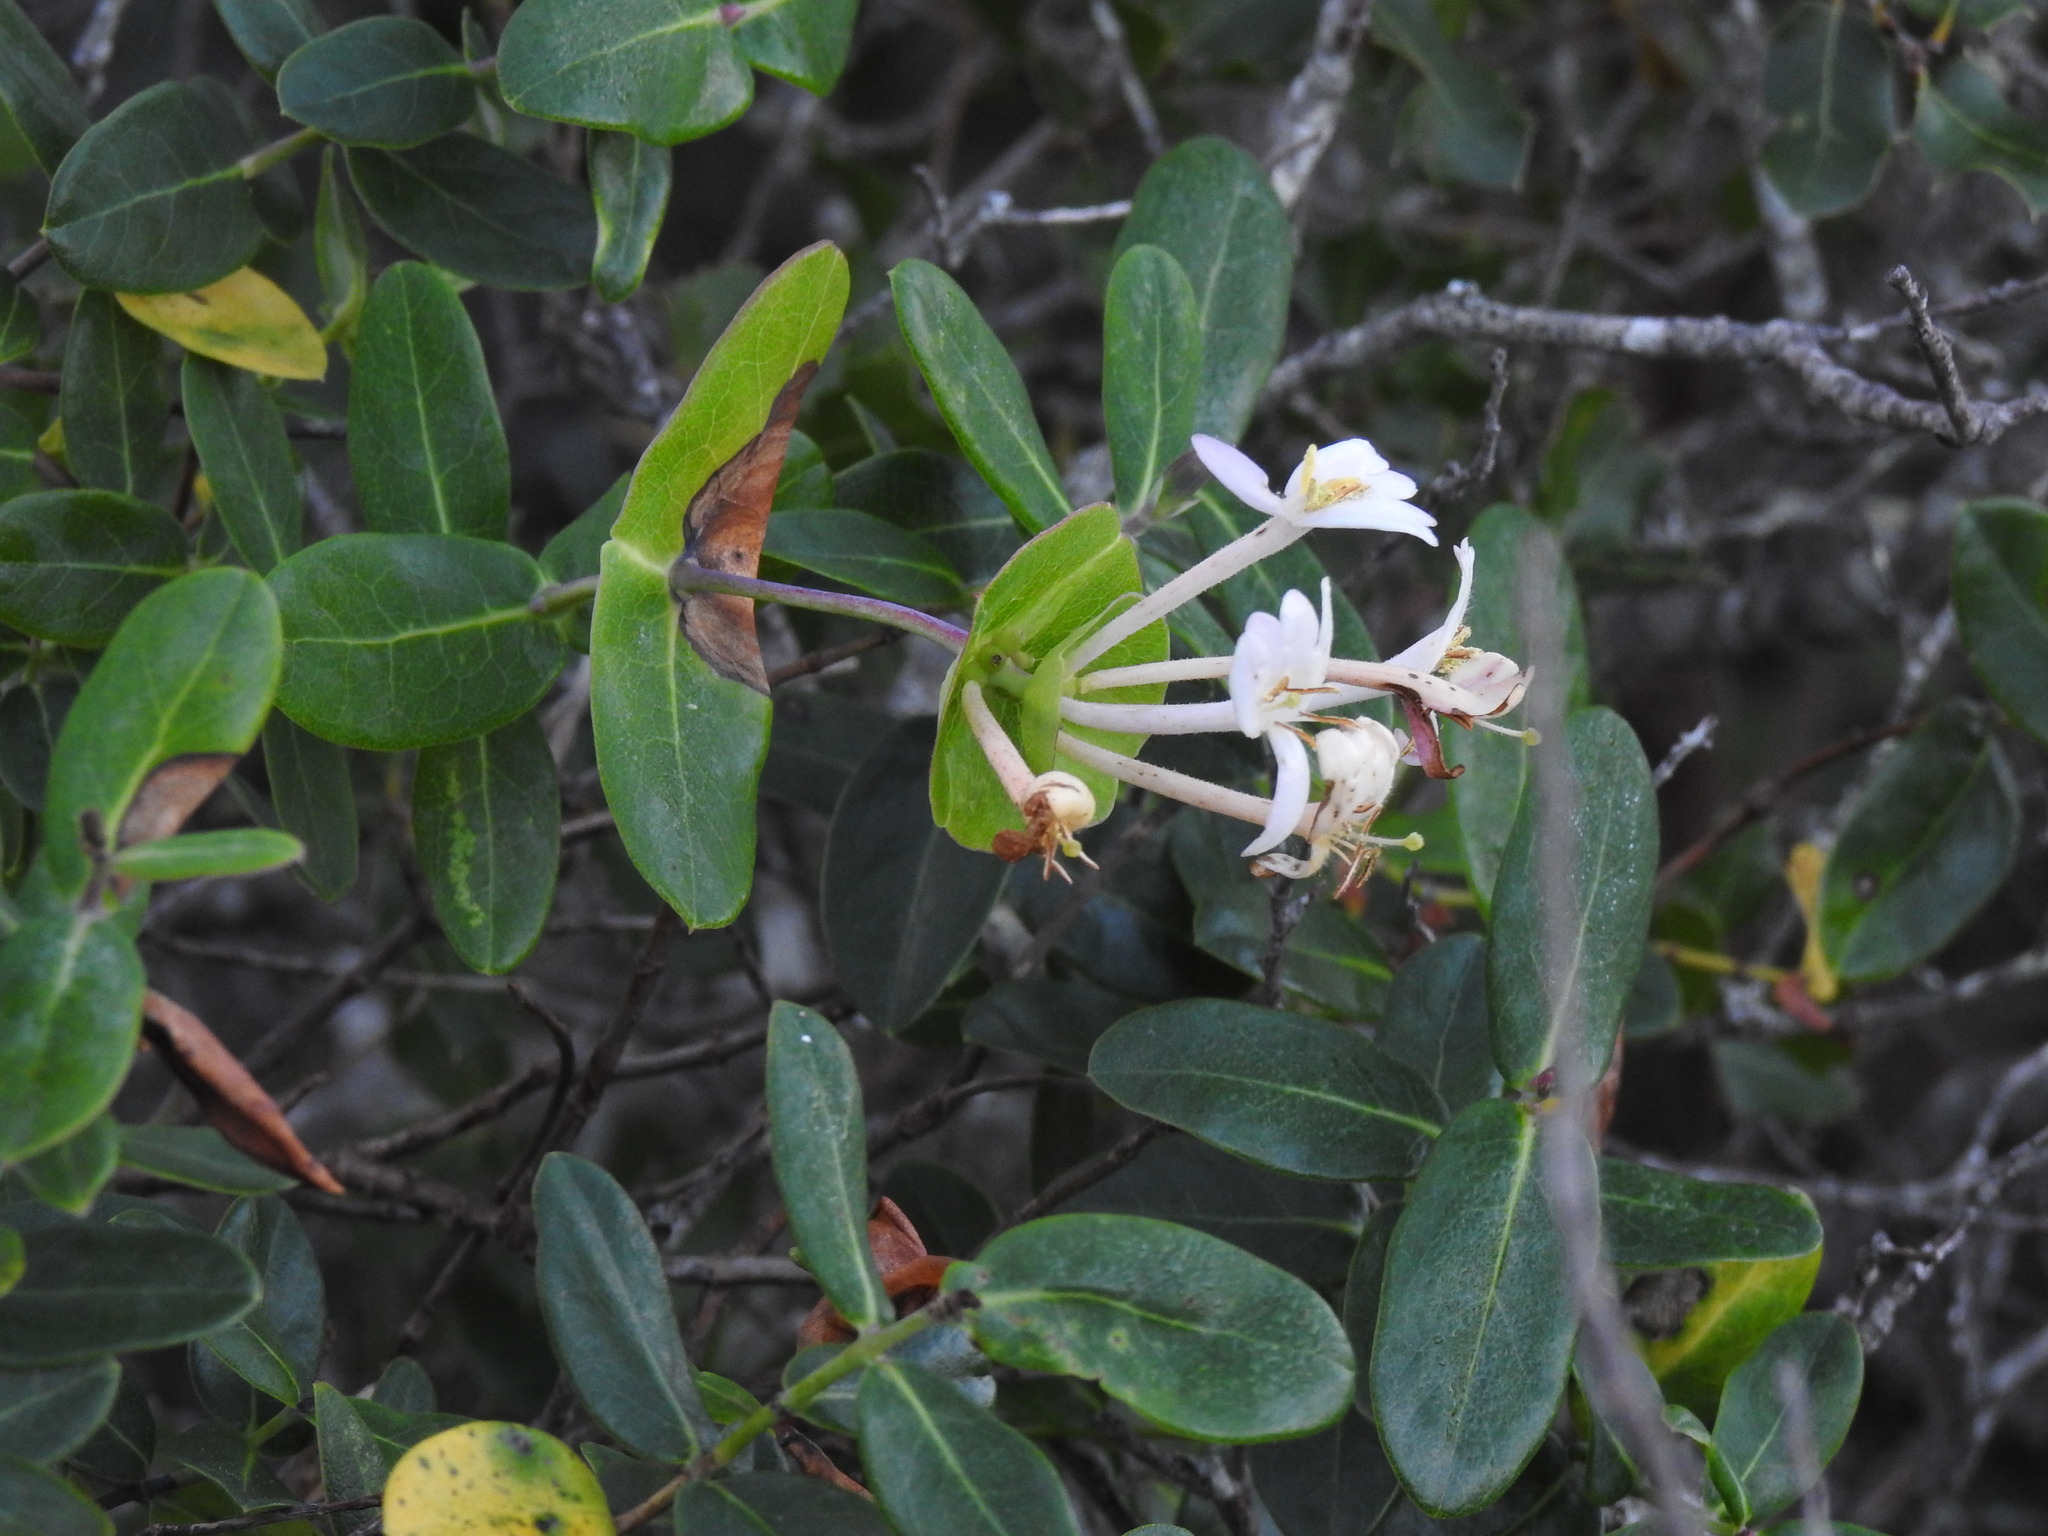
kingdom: Plantae
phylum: Tracheophyta
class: Magnoliopsida
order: Dipsacales
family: Caprifoliaceae
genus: Lonicera
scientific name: Lonicera implexa
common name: Minorca honeysuckle
